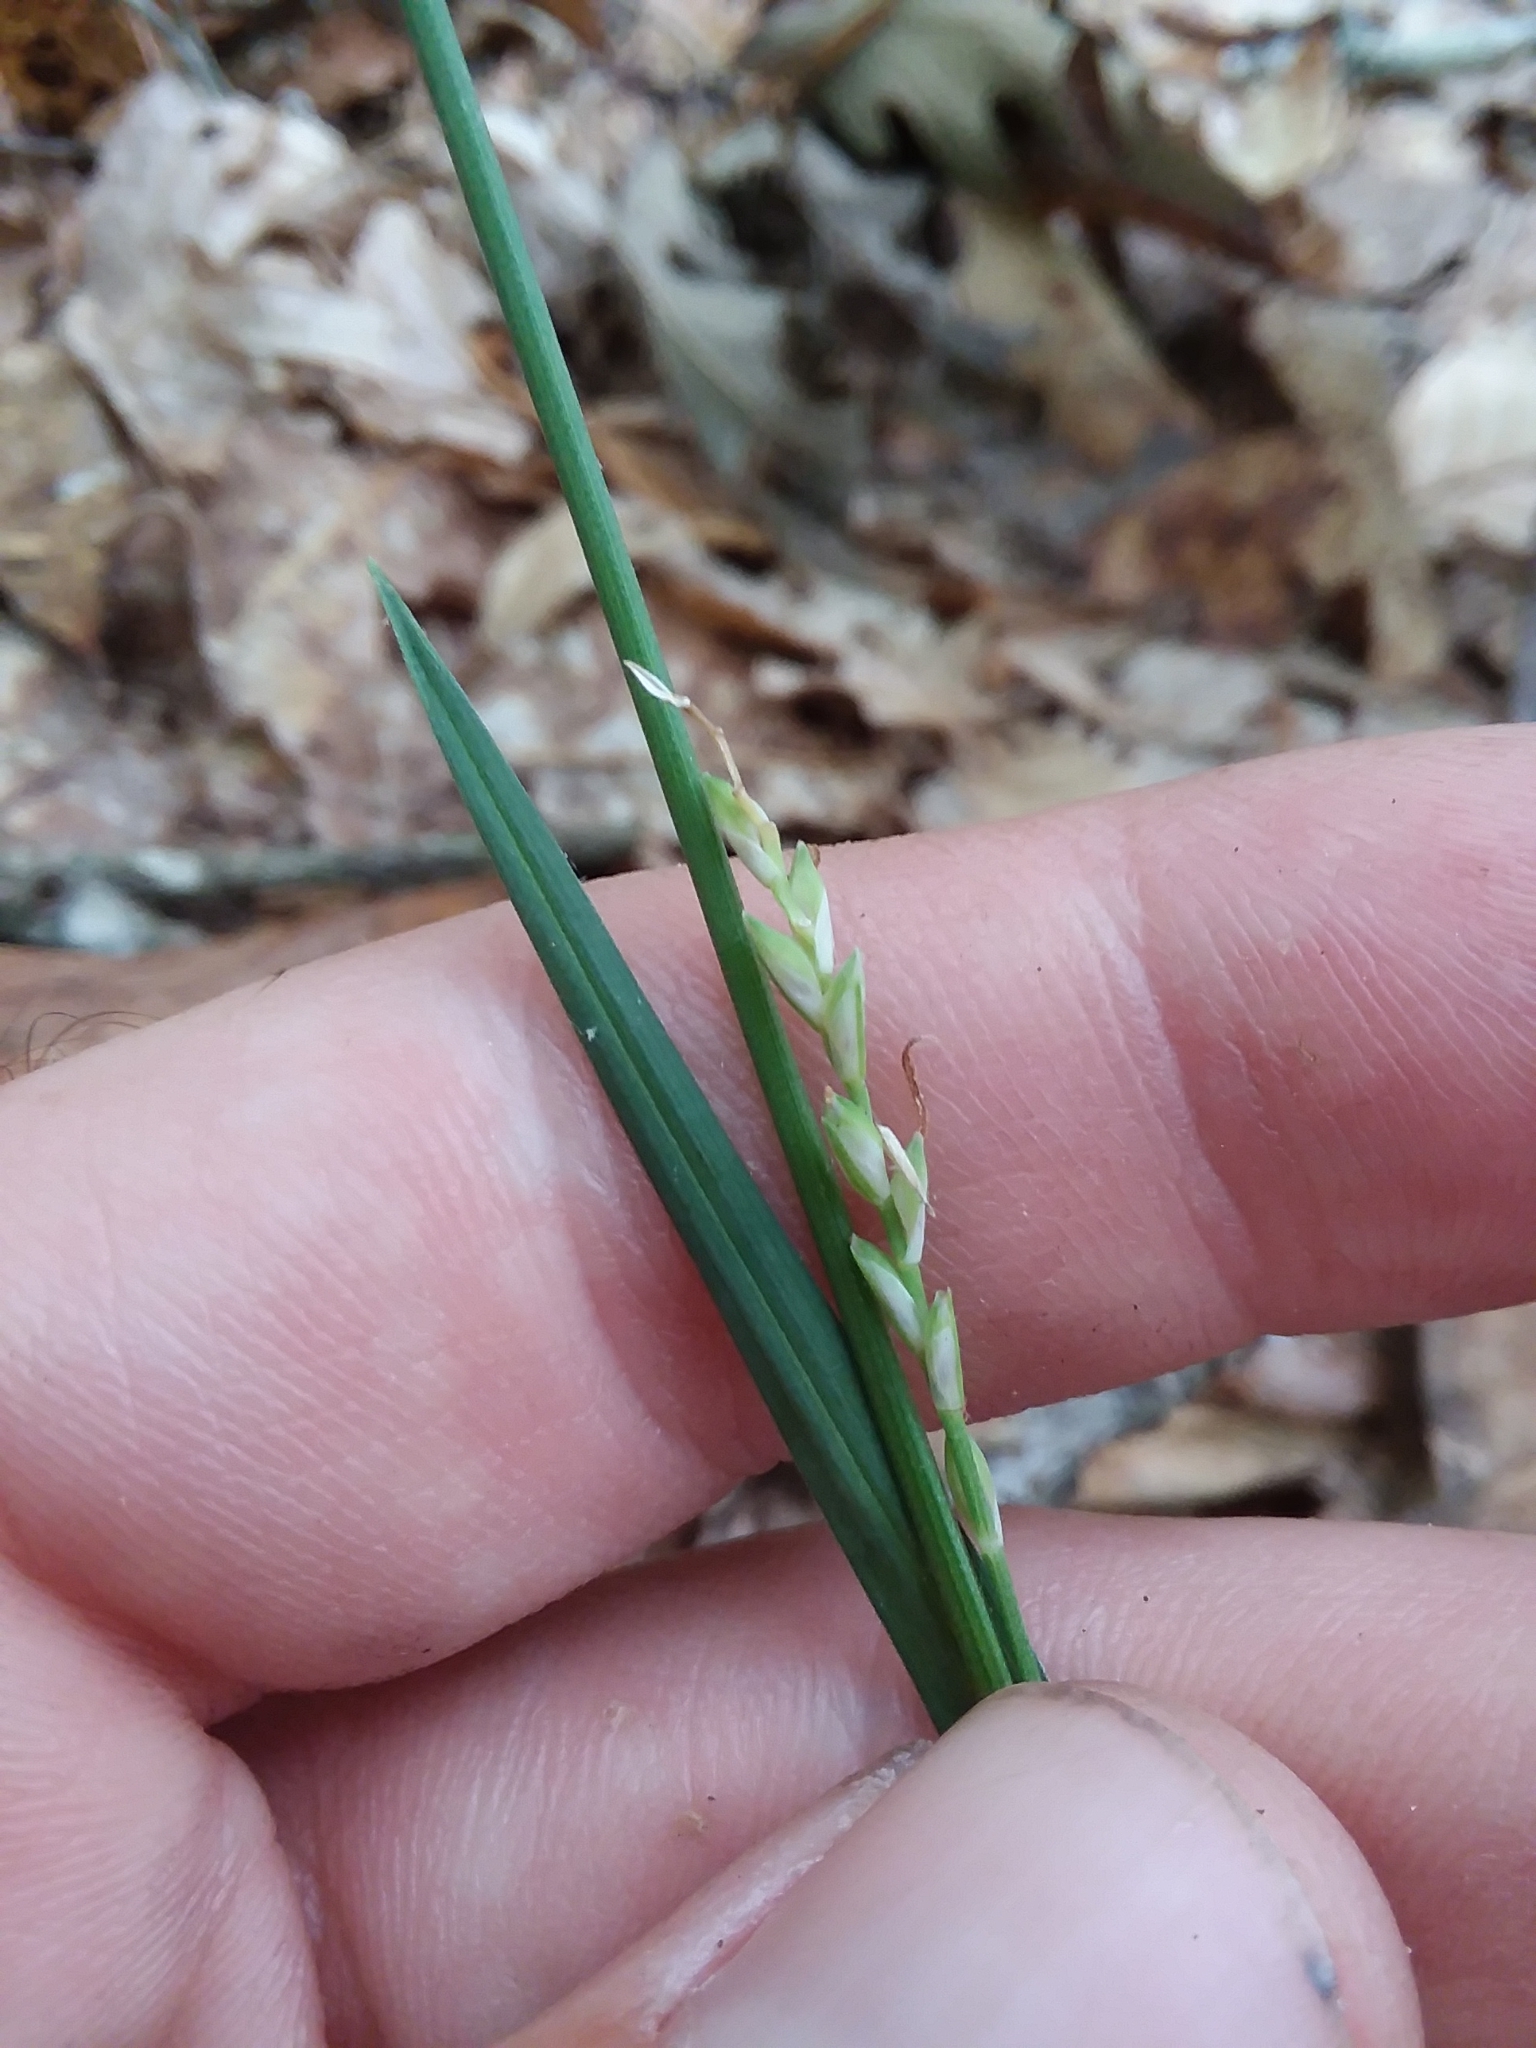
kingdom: Plantae
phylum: Tracheophyta
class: Liliopsida
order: Poales
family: Cyperaceae
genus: Carex
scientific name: Carex ignota
